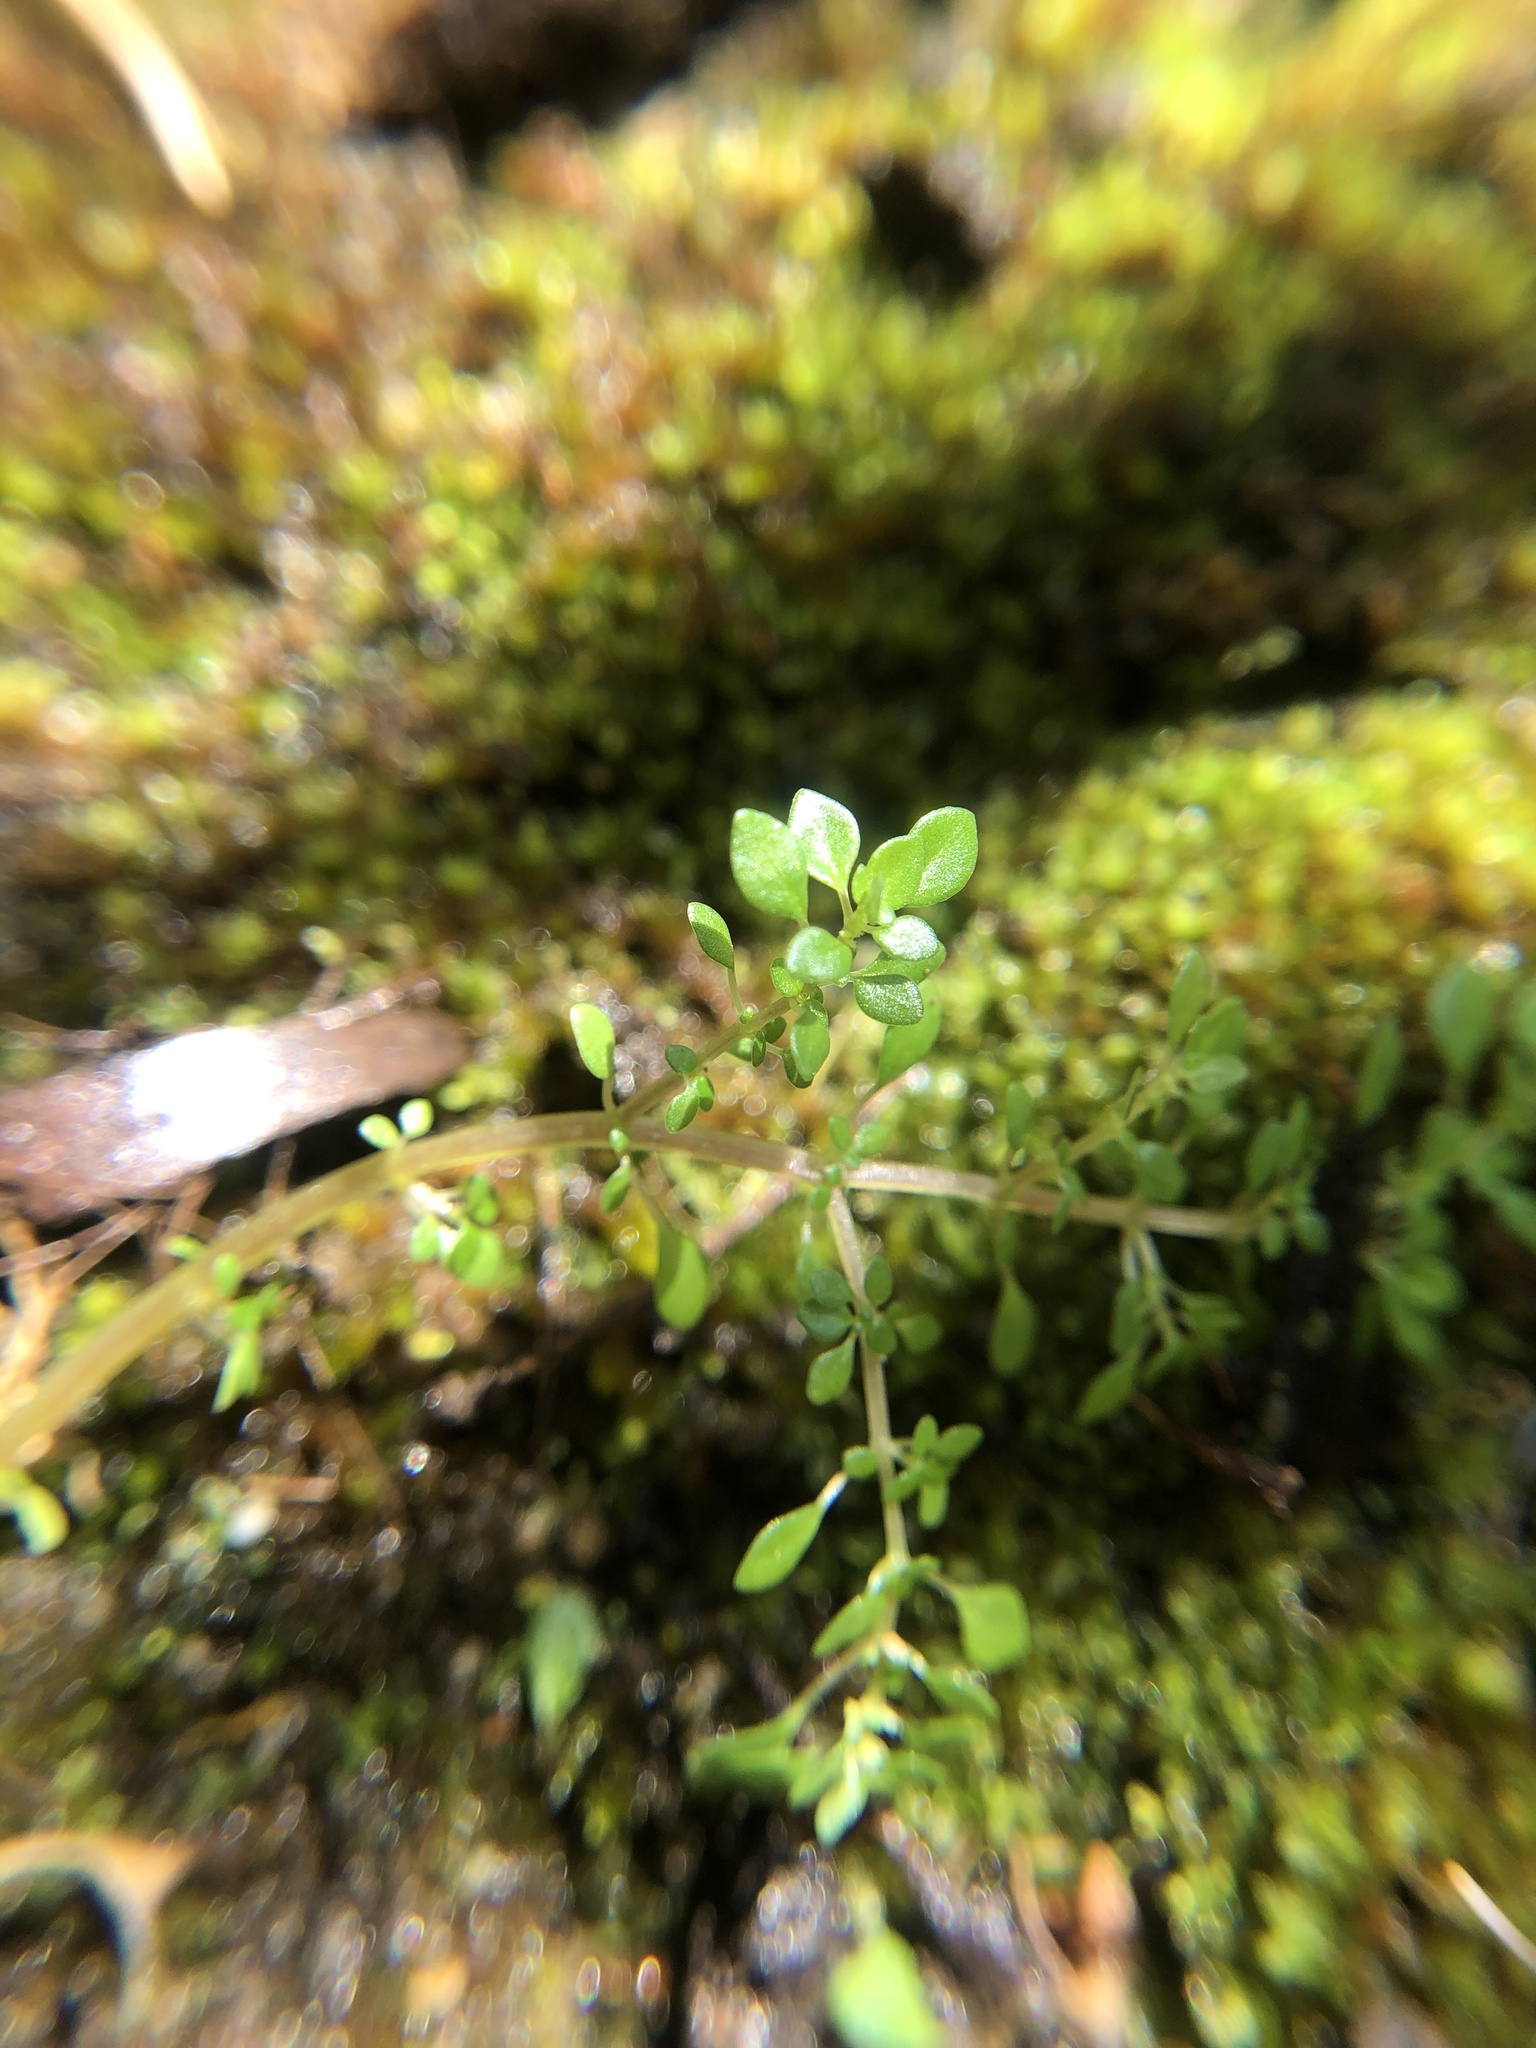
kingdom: Plantae
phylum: Tracheophyta
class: Magnoliopsida
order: Rosales
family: Urticaceae
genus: Pilea
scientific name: Pilea microphylla
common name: Artillery-plant
